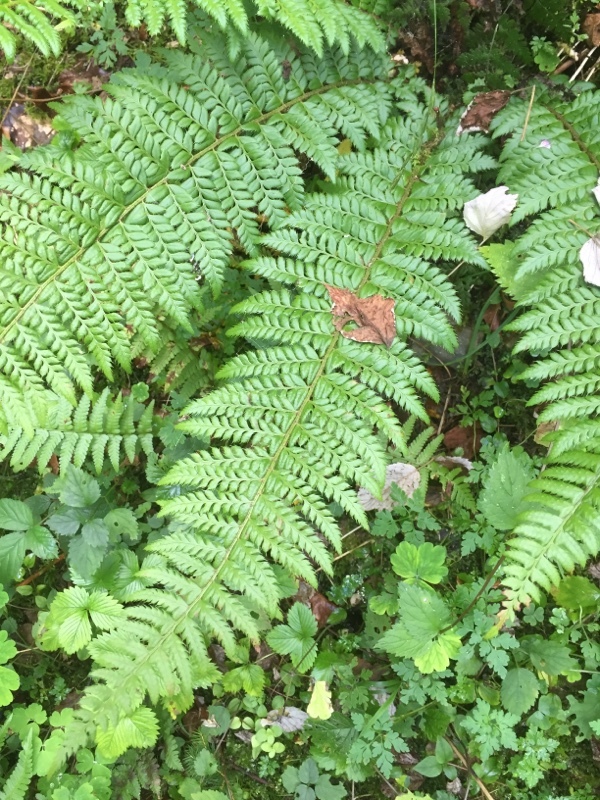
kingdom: Plantae
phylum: Tracheophyta
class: Polypodiopsida
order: Polypodiales
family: Dryopteridaceae
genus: Polystichum
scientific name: Polystichum aculeatum
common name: Hard shield-fern
